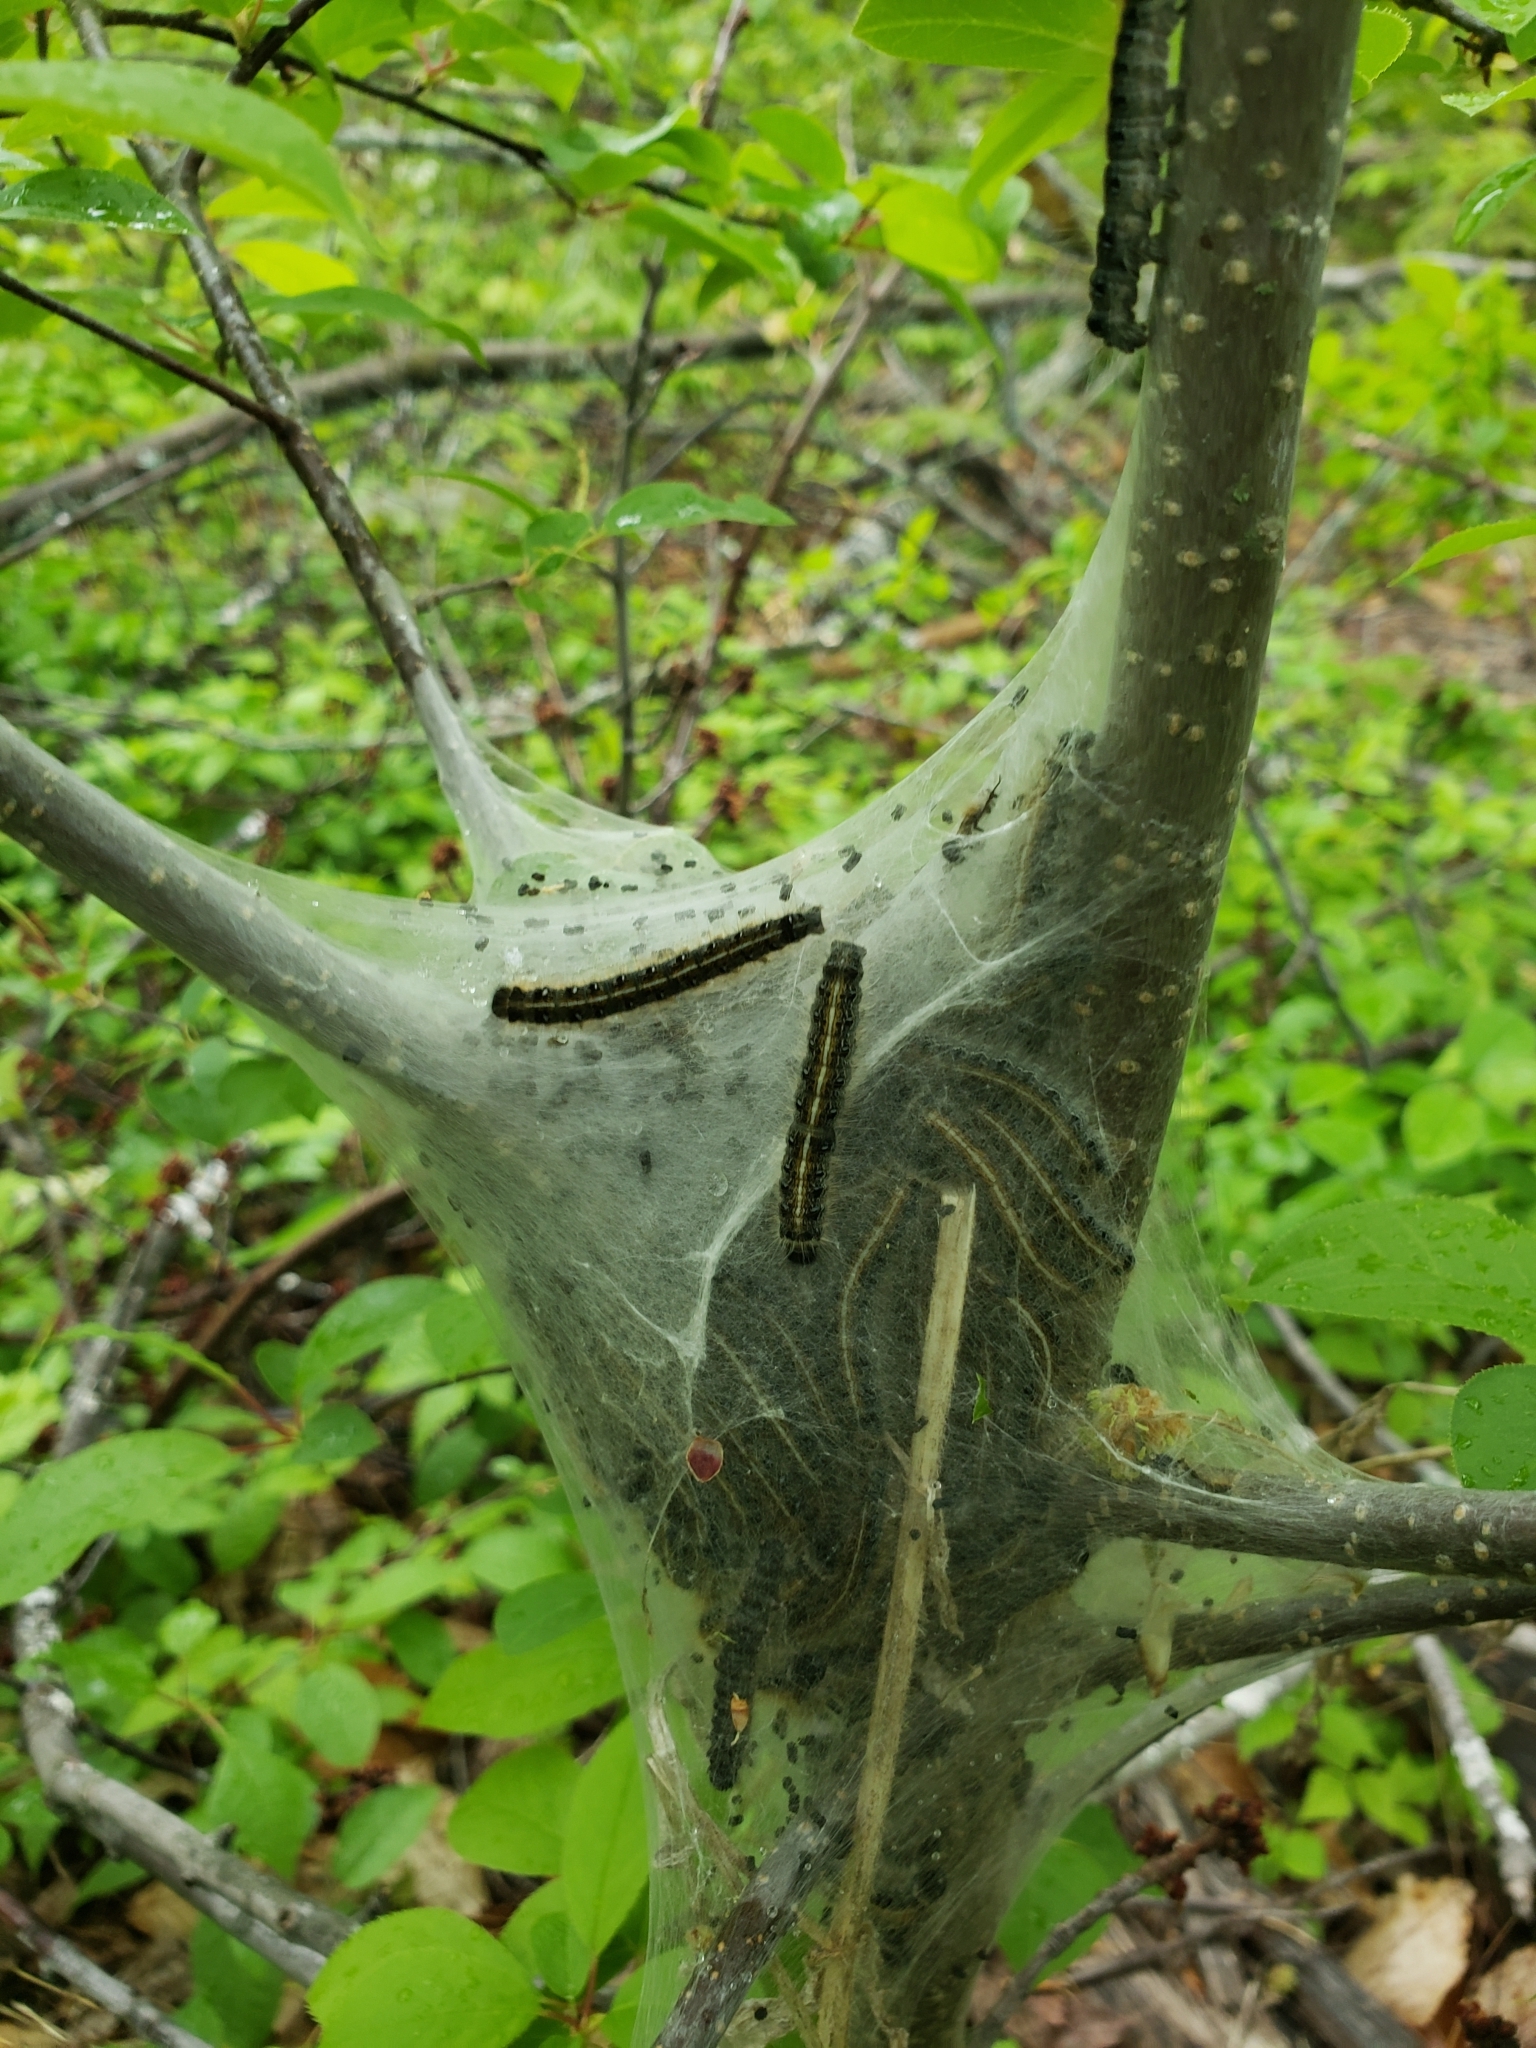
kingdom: Animalia
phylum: Arthropoda
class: Insecta
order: Lepidoptera
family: Lasiocampidae
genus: Malacosoma
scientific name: Malacosoma americana
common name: Eastern tent caterpillar moth
